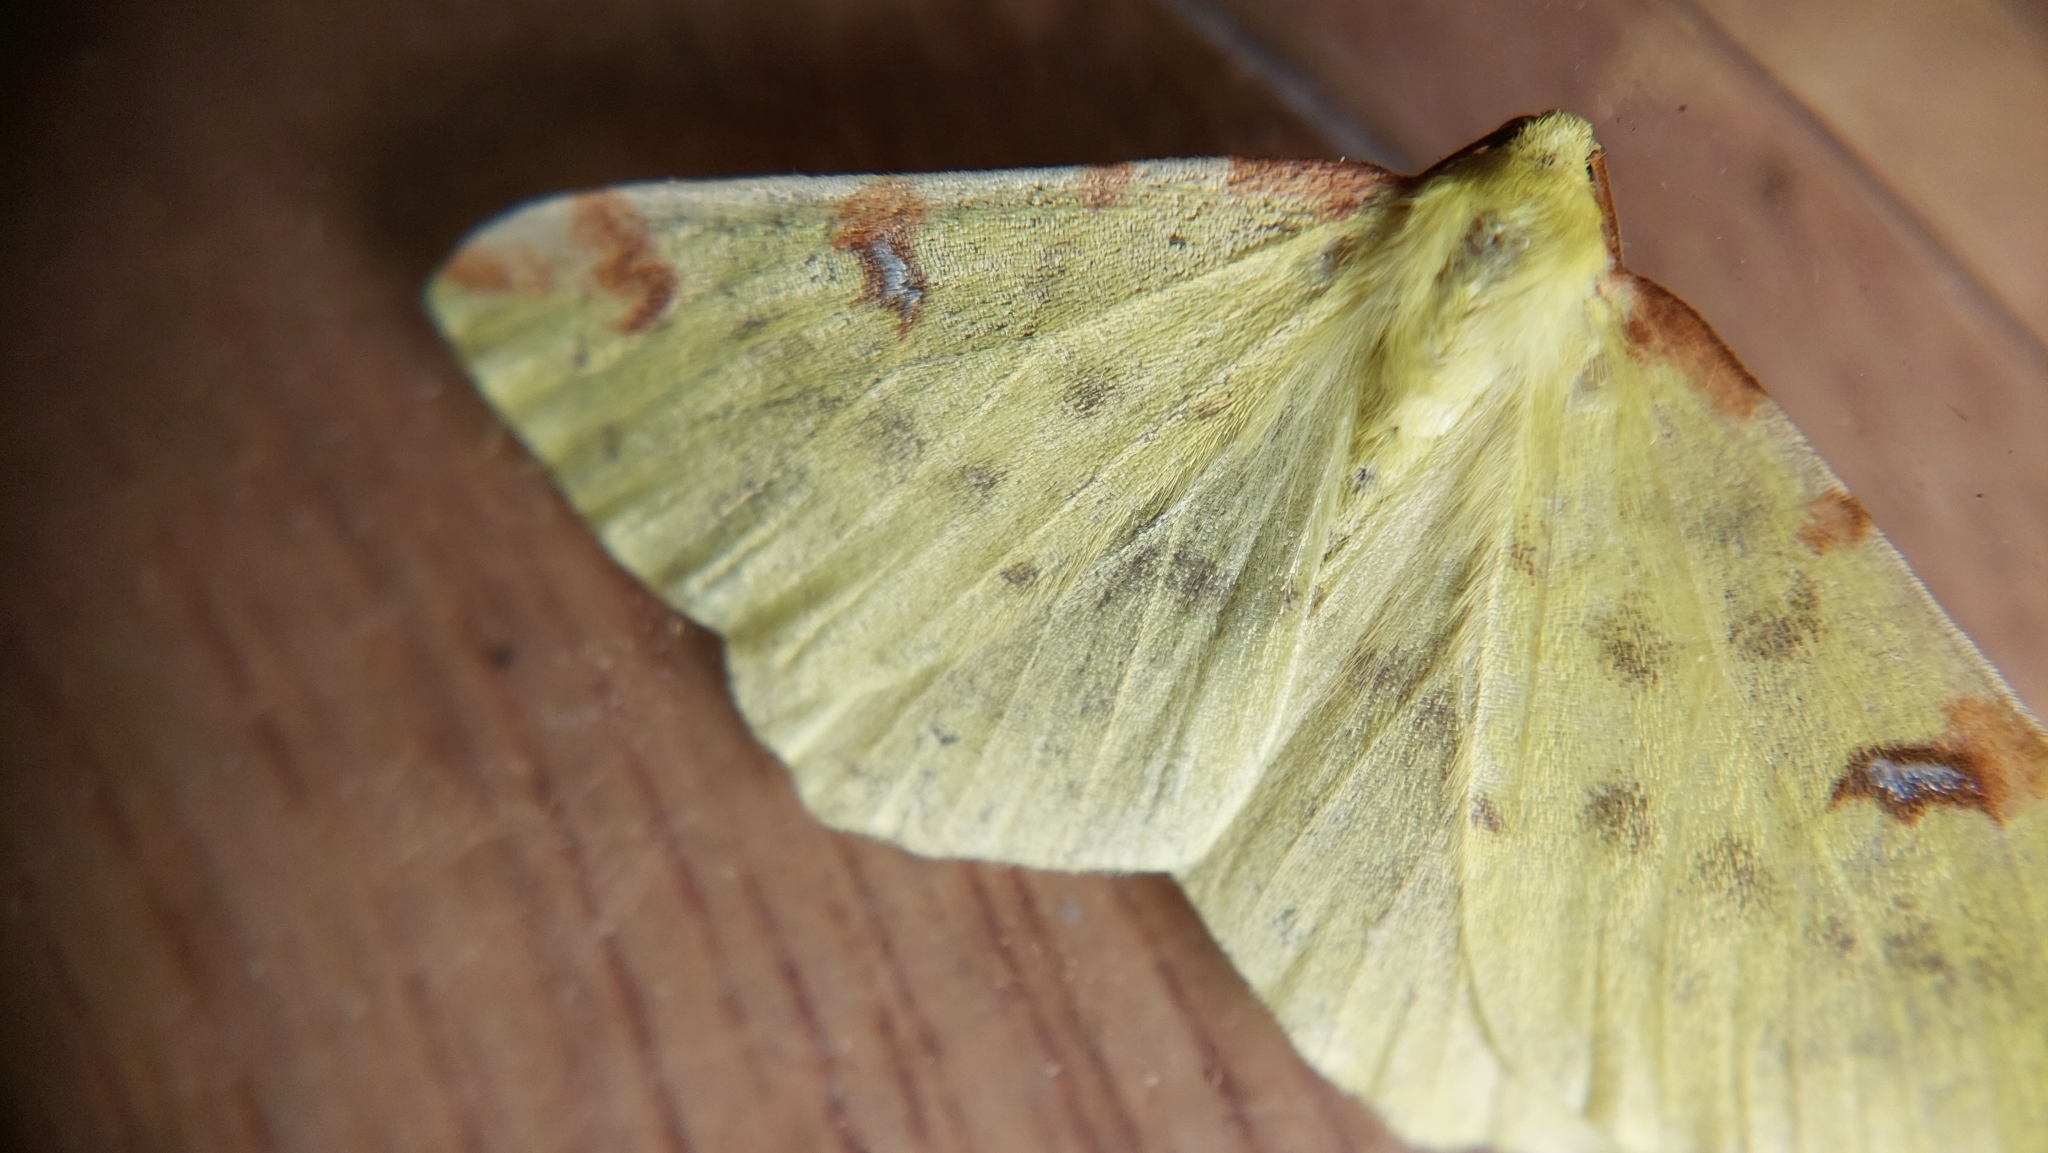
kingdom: Animalia
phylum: Arthropoda
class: Insecta
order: Lepidoptera
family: Geometridae
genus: Opisthograptis
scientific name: Opisthograptis luteolata
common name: Brimstone moth
